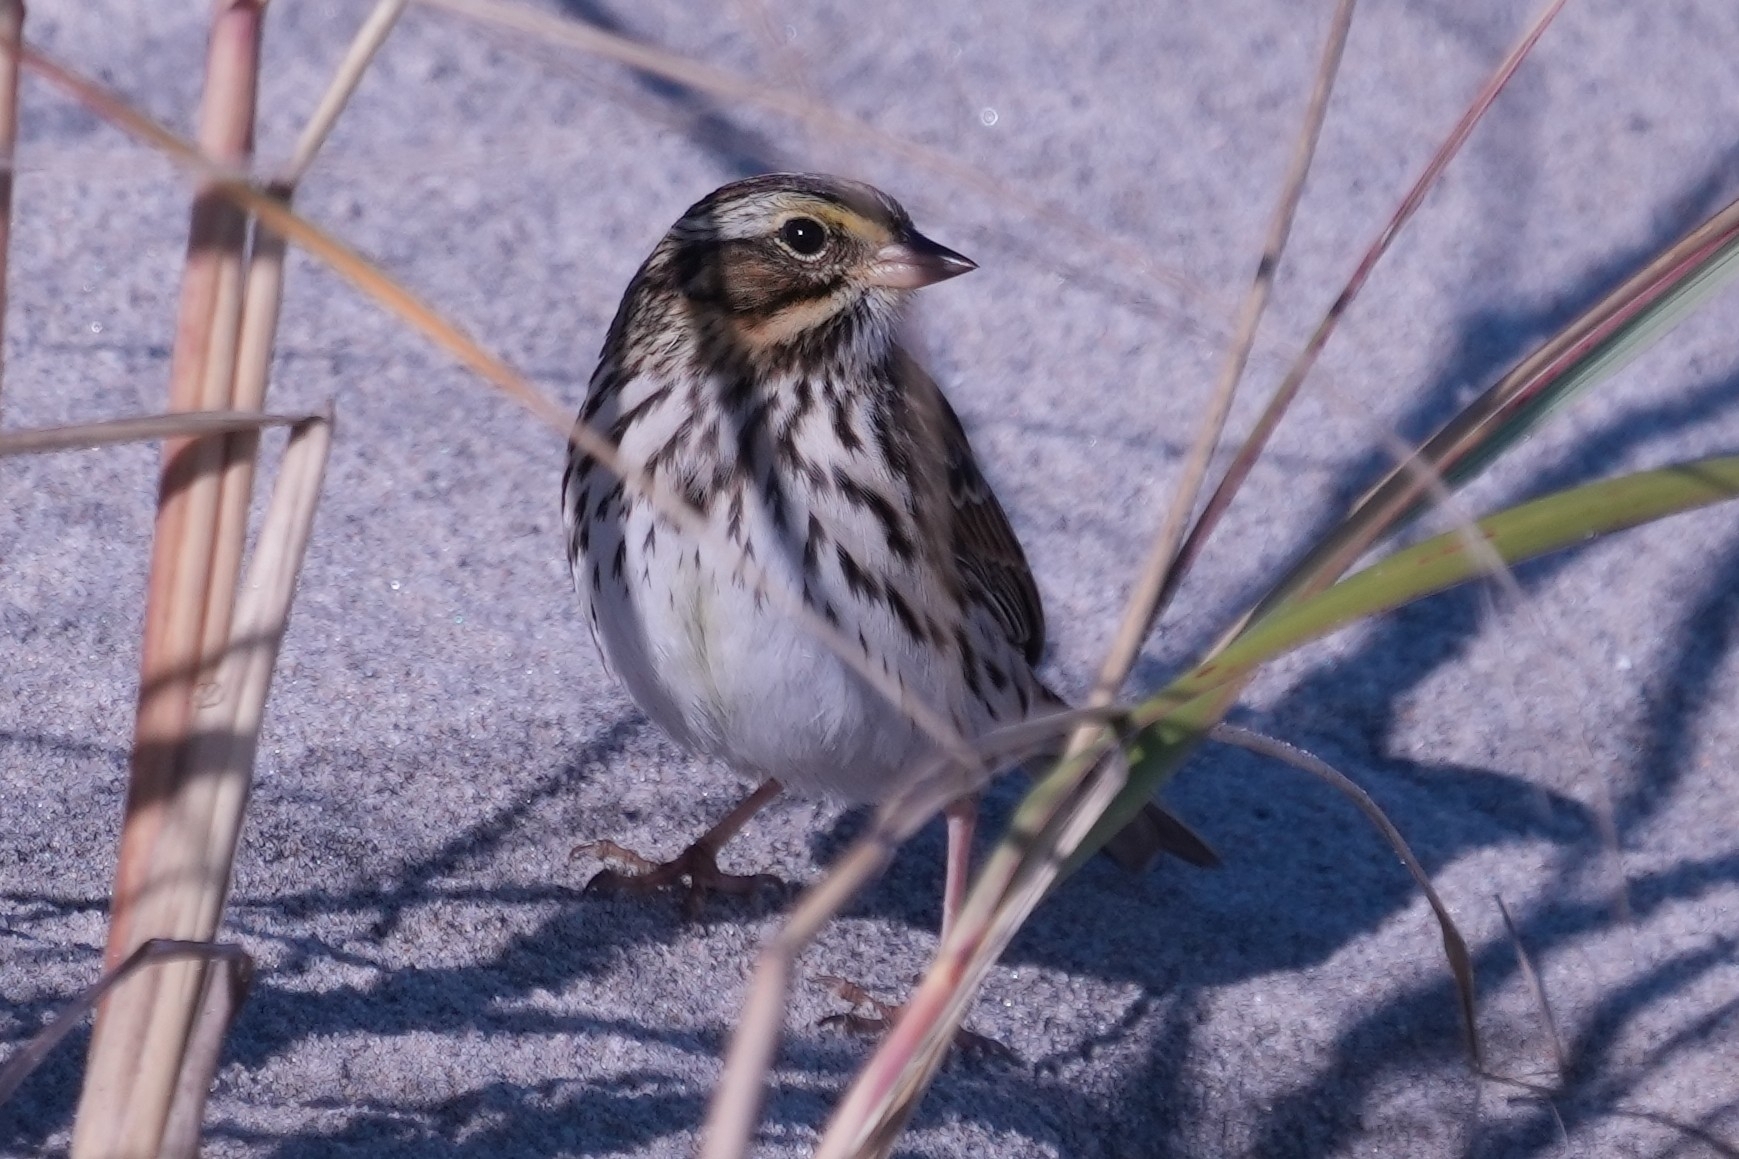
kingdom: Animalia
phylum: Chordata
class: Aves
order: Passeriformes
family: Passerellidae
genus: Passerculus
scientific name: Passerculus sandwichensis
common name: Savannah sparrow
